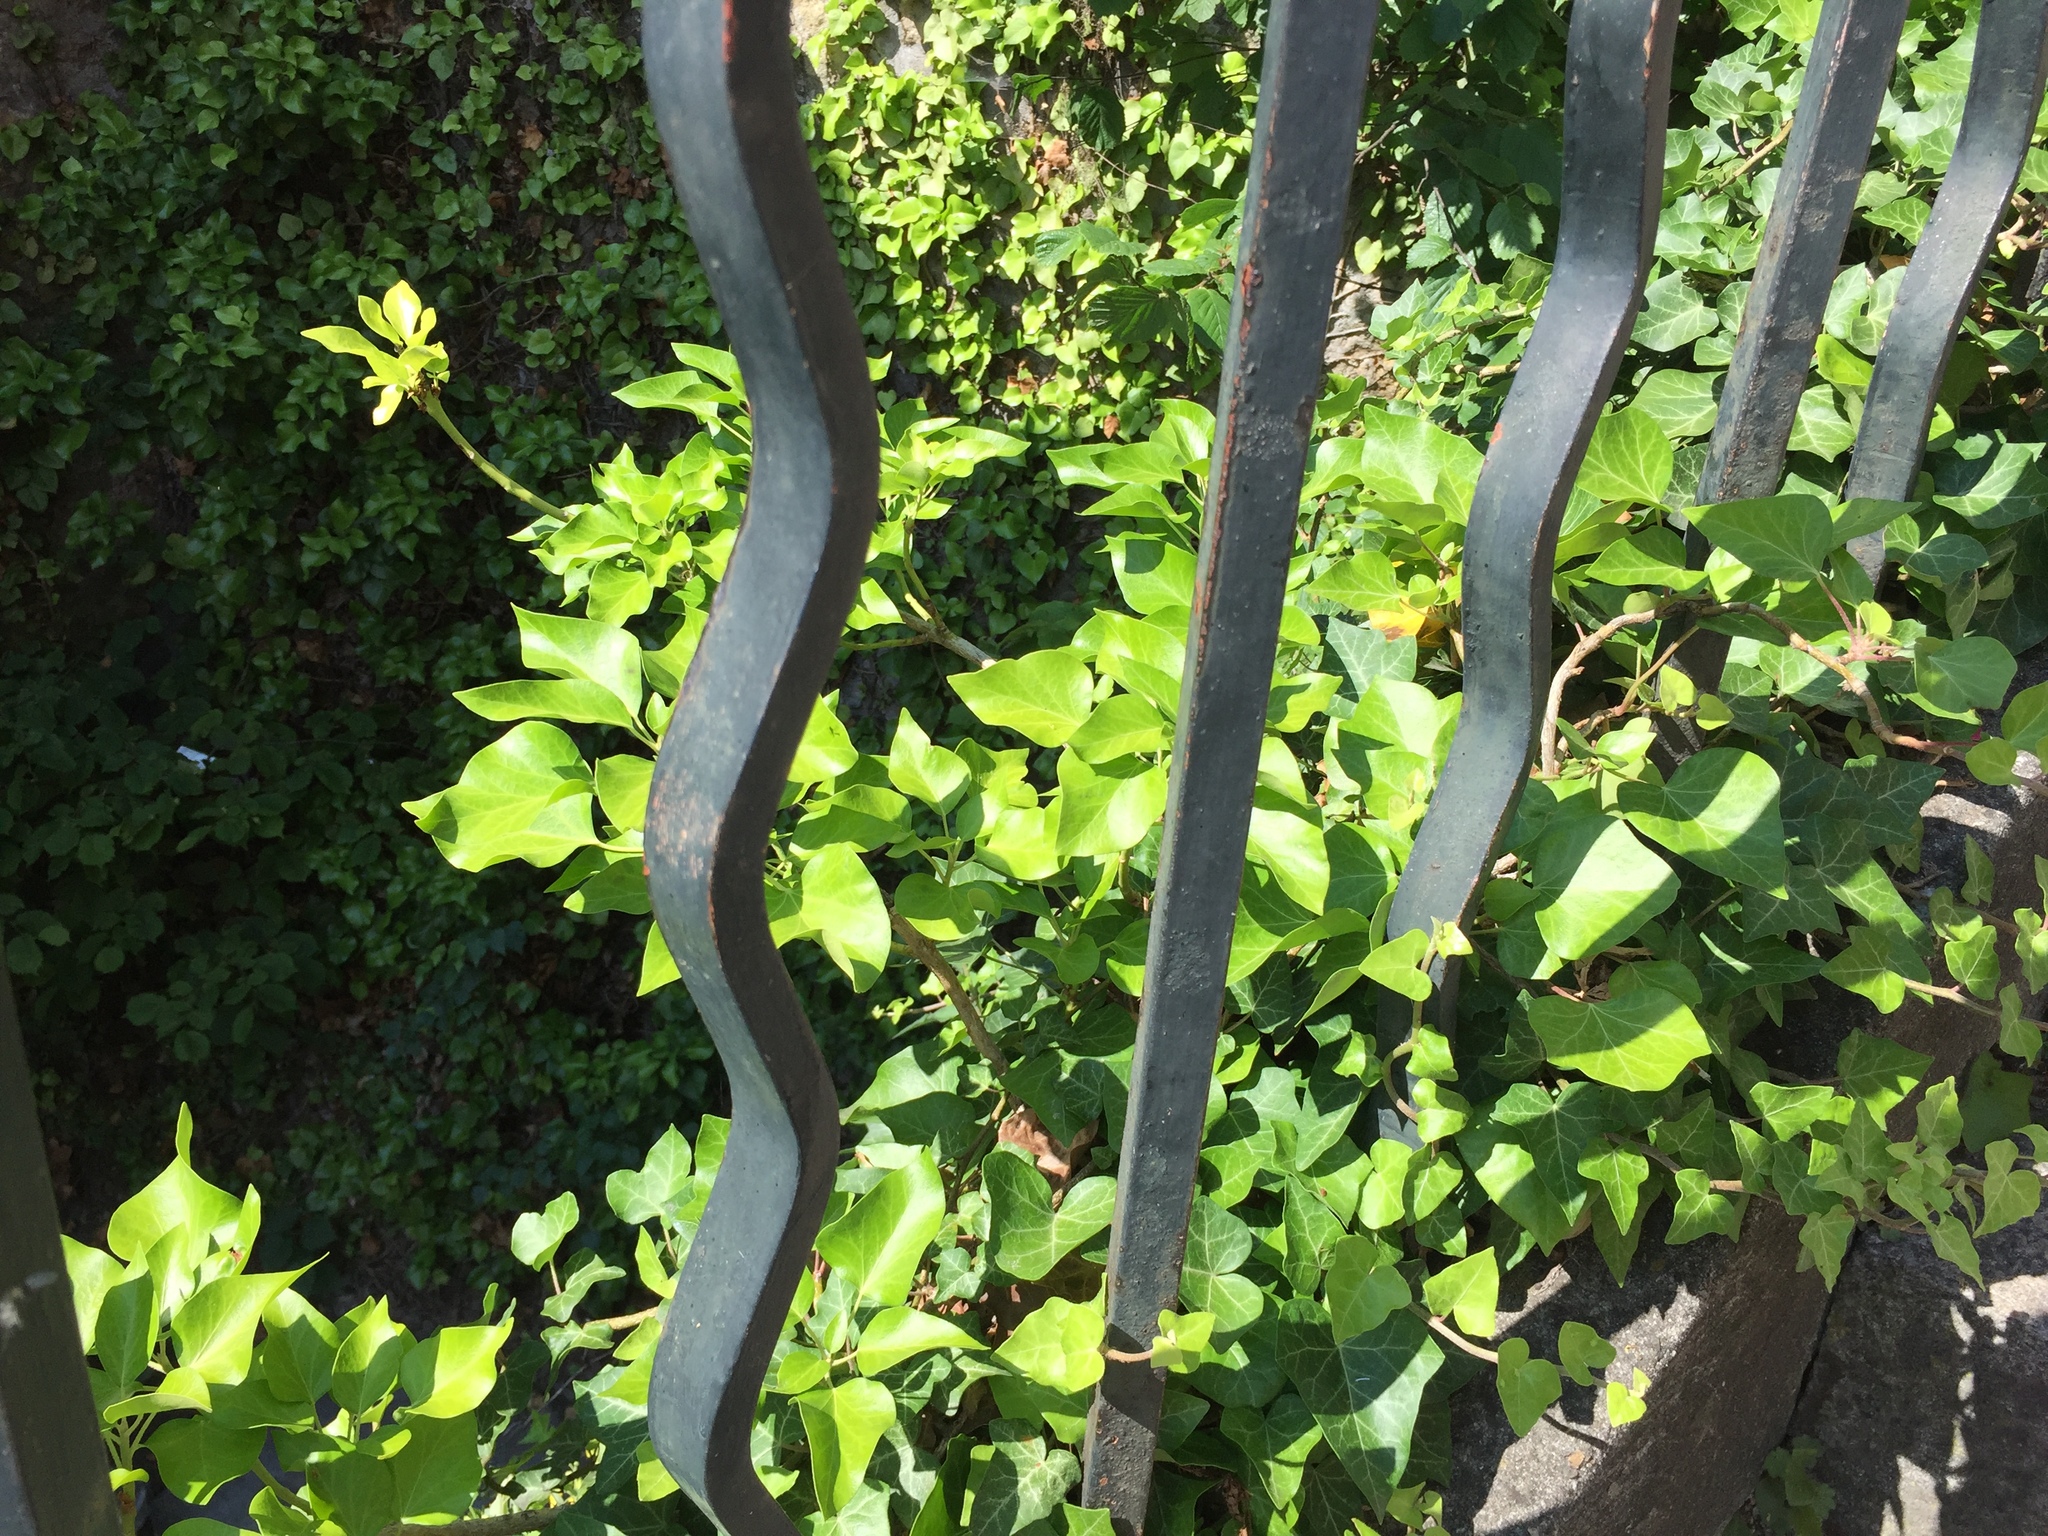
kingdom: Plantae
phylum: Tracheophyta
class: Magnoliopsida
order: Apiales
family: Araliaceae
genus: Hedera
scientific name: Hedera helix
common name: Ivy
